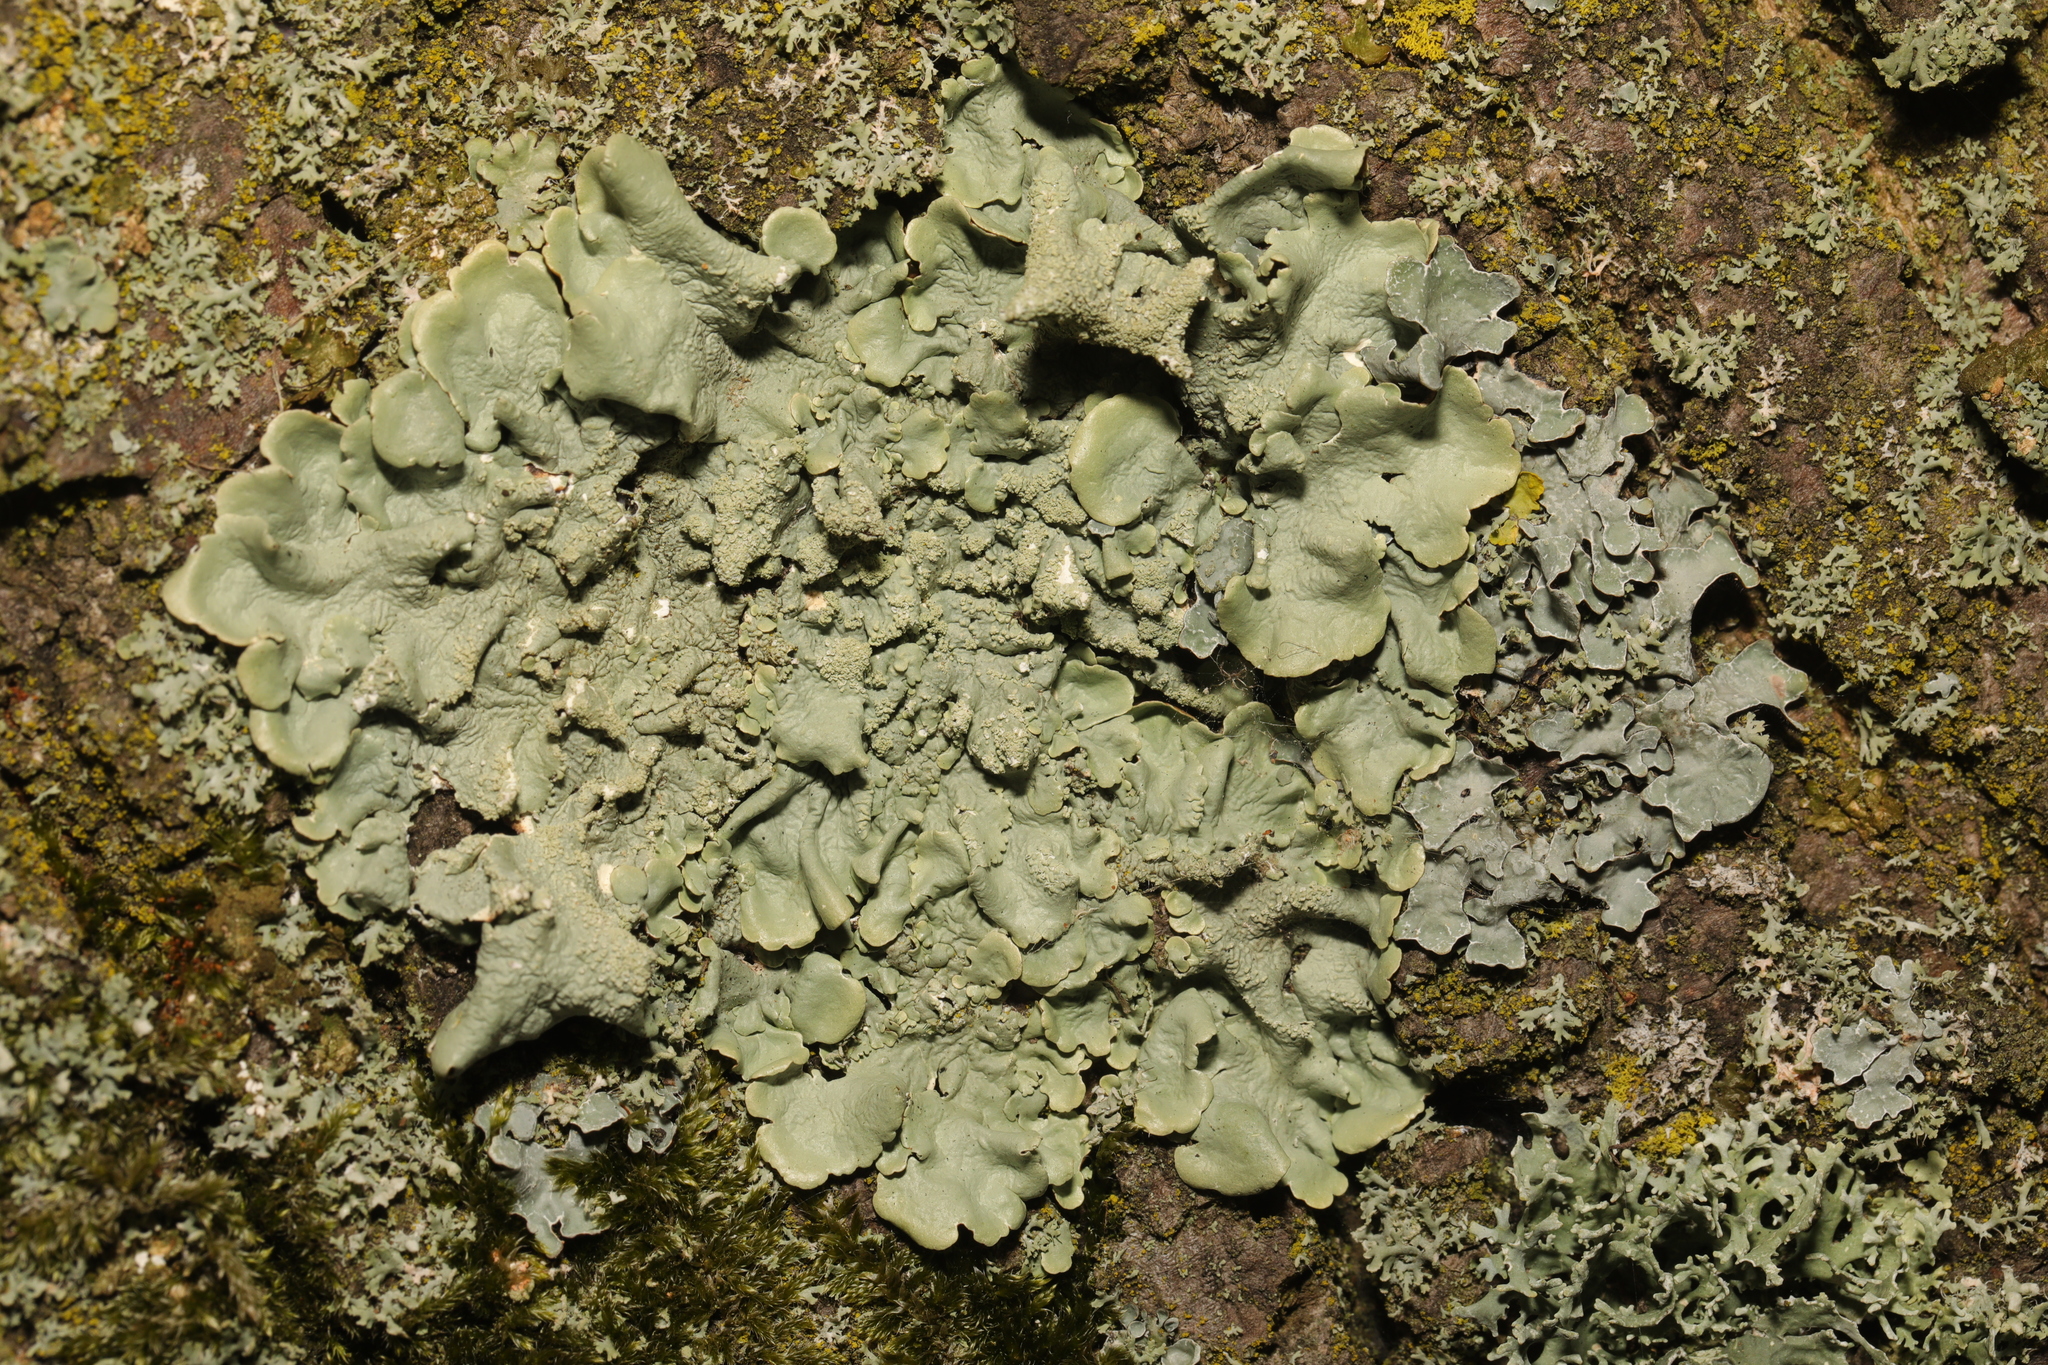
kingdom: Fungi
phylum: Ascomycota
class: Lecanoromycetes
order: Lecanorales
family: Parmeliaceae
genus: Flavoparmelia
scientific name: Flavoparmelia caperata
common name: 40-mile per hour lichen
